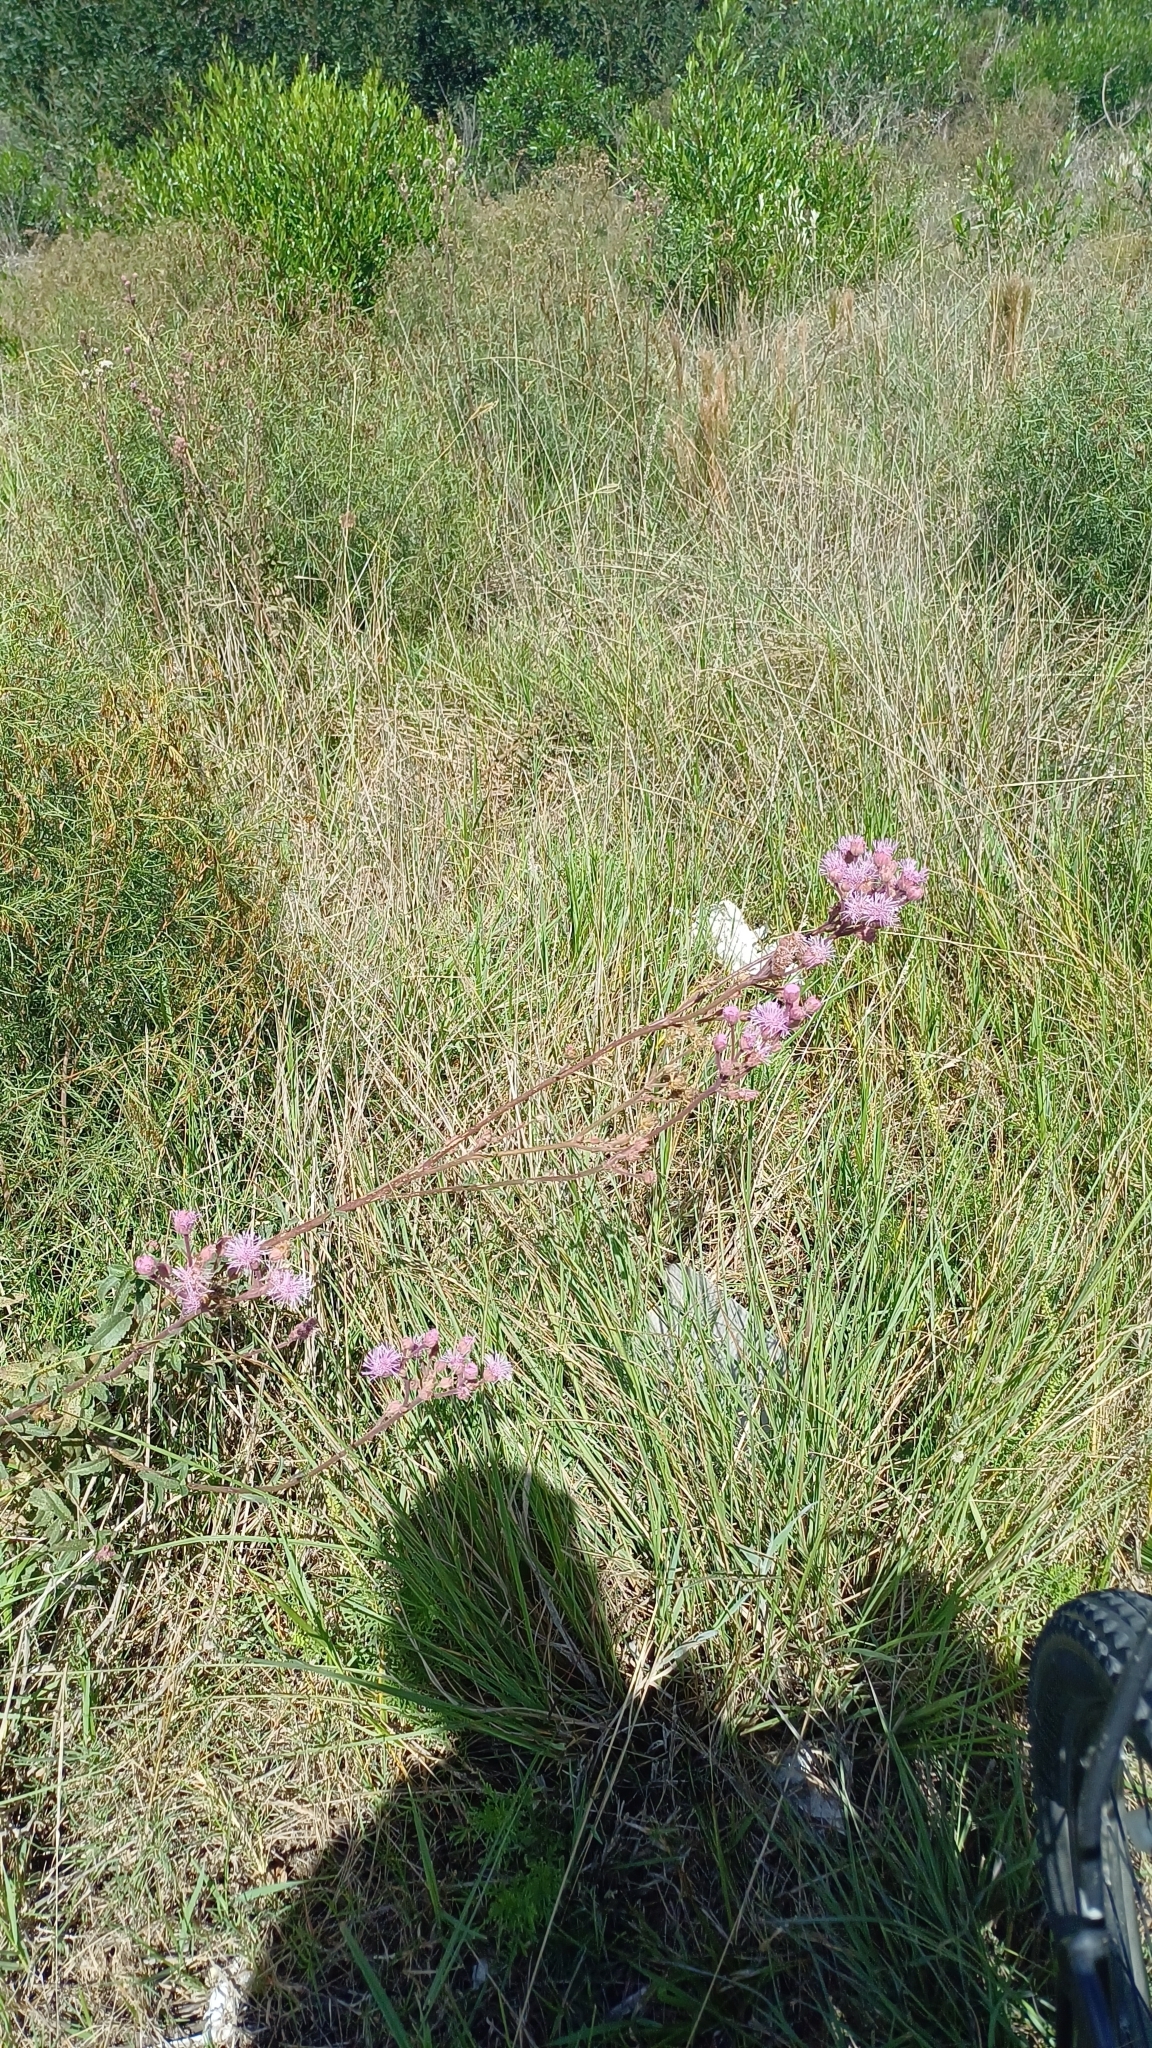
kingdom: Plantae
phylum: Tracheophyta
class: Magnoliopsida
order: Asterales
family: Asteraceae
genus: Campuloclinium
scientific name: Campuloclinium macrocephalum
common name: Pompomweed
